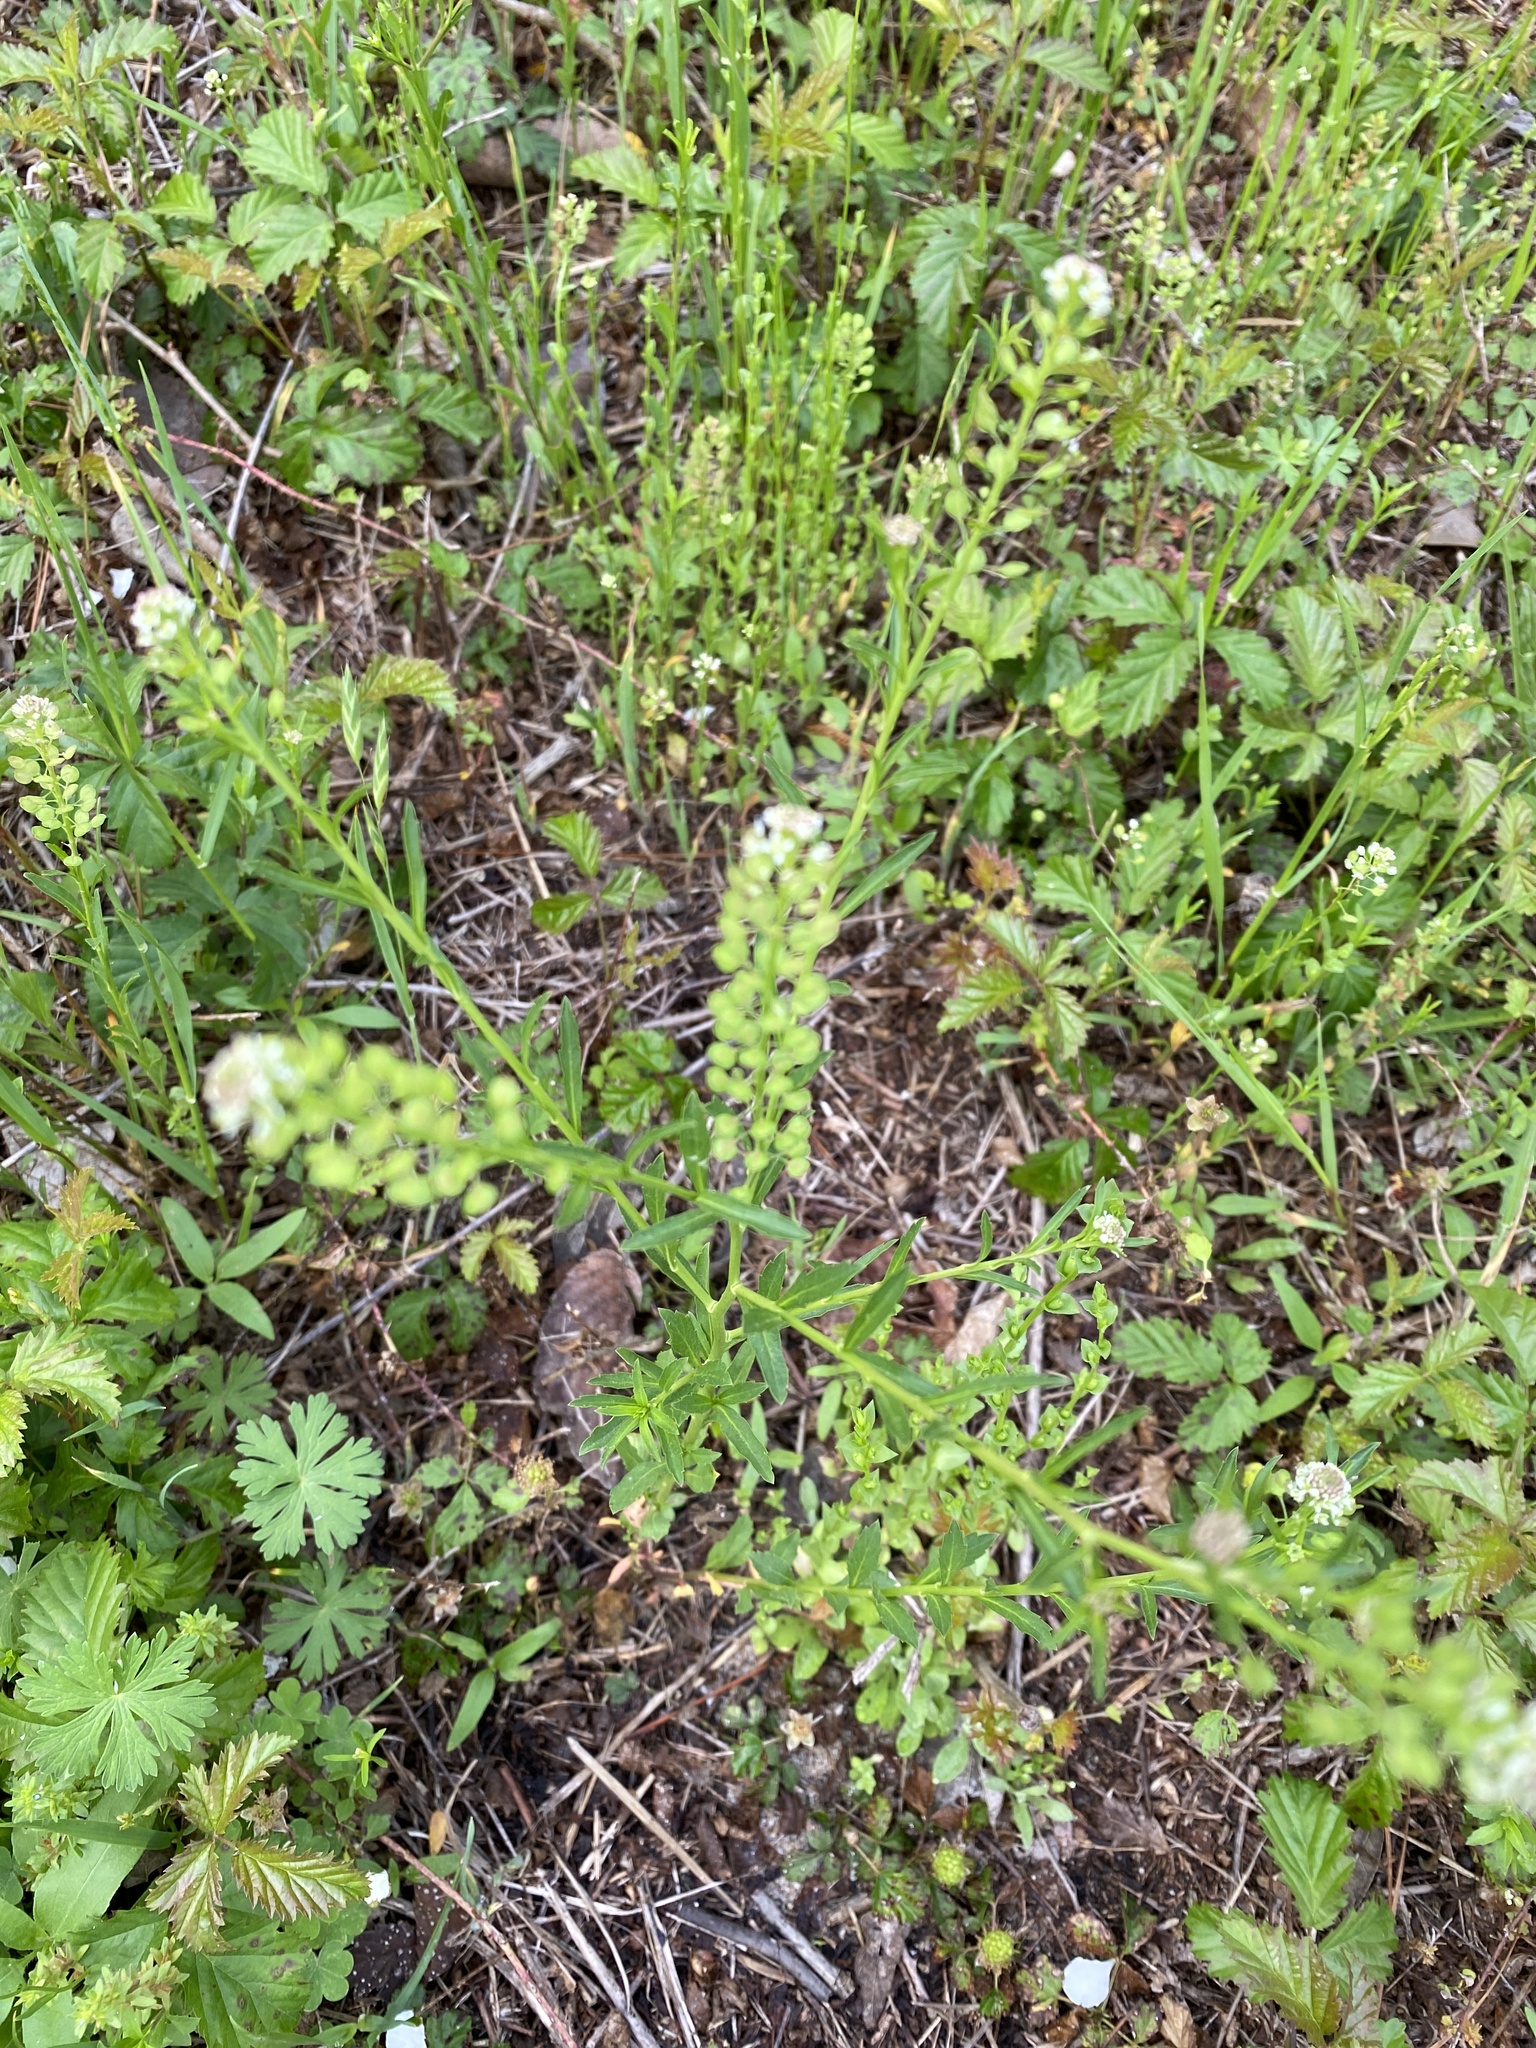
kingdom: Plantae
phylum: Tracheophyta
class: Magnoliopsida
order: Brassicales
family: Brassicaceae
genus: Lepidium
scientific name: Lepidium virginicum
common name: Least pepperwort
